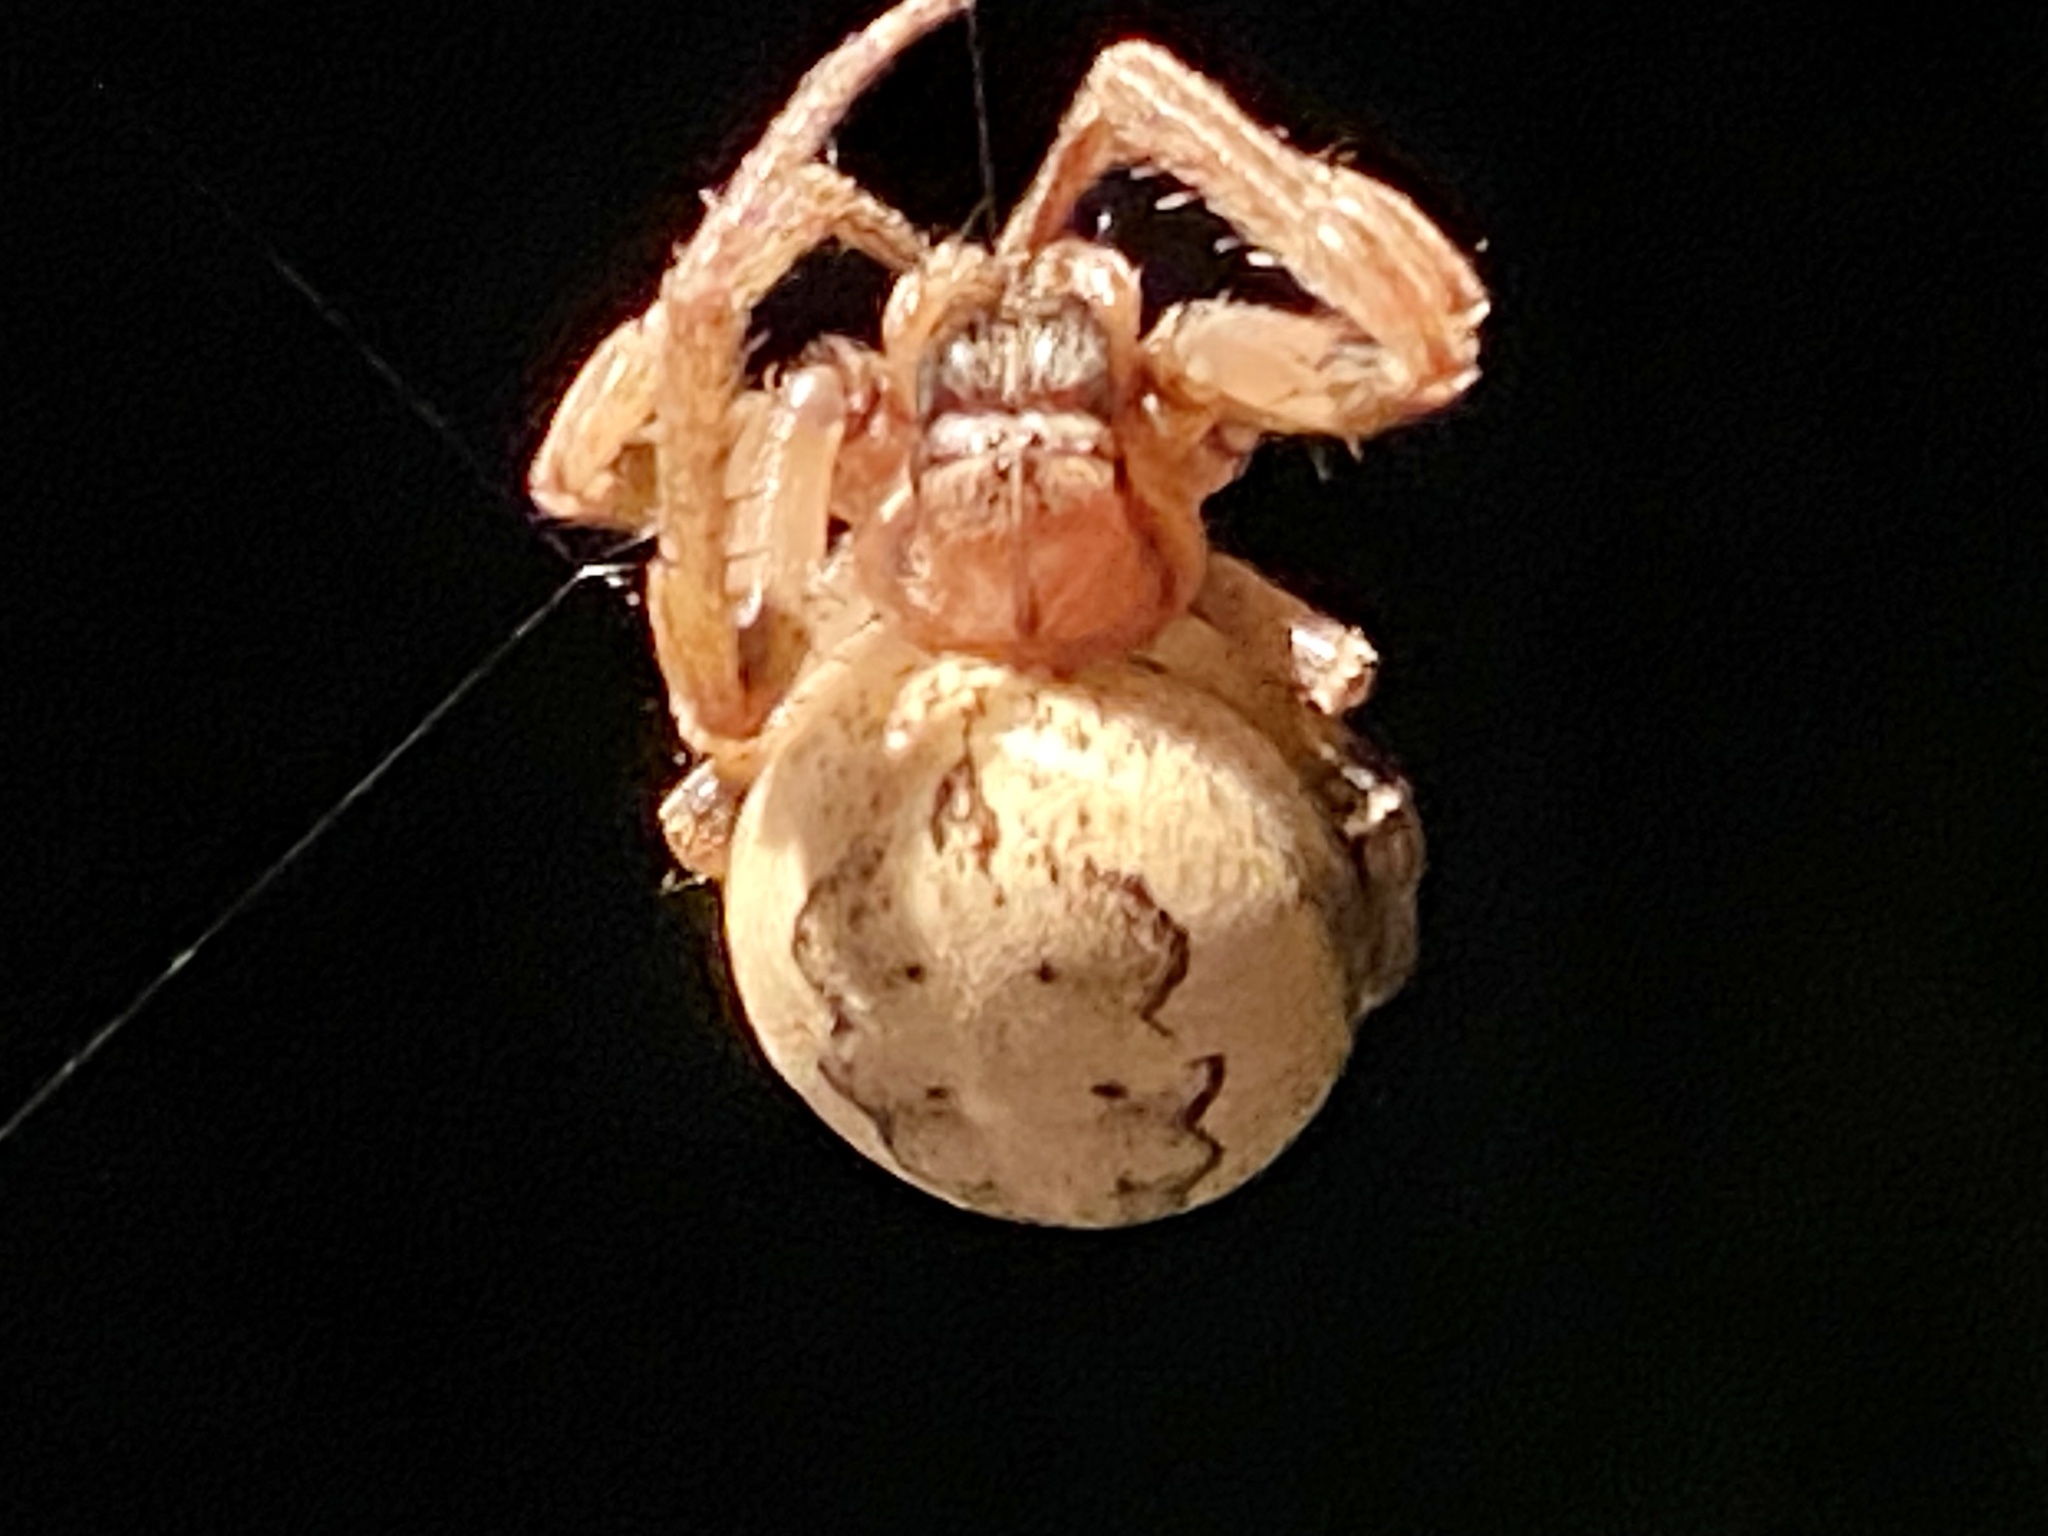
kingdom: Animalia
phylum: Arthropoda
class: Arachnida
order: Araneae
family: Araneidae
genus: Larinioides
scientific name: Larinioides cornutus
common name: Furrow orbweaver
